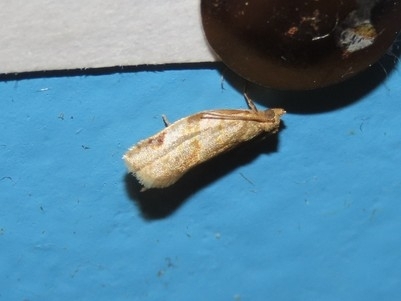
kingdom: Animalia
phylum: Arthropoda
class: Insecta
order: Lepidoptera
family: Tortricidae
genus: Clepsis
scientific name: Clepsis virescana
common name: Greenish apple moth
